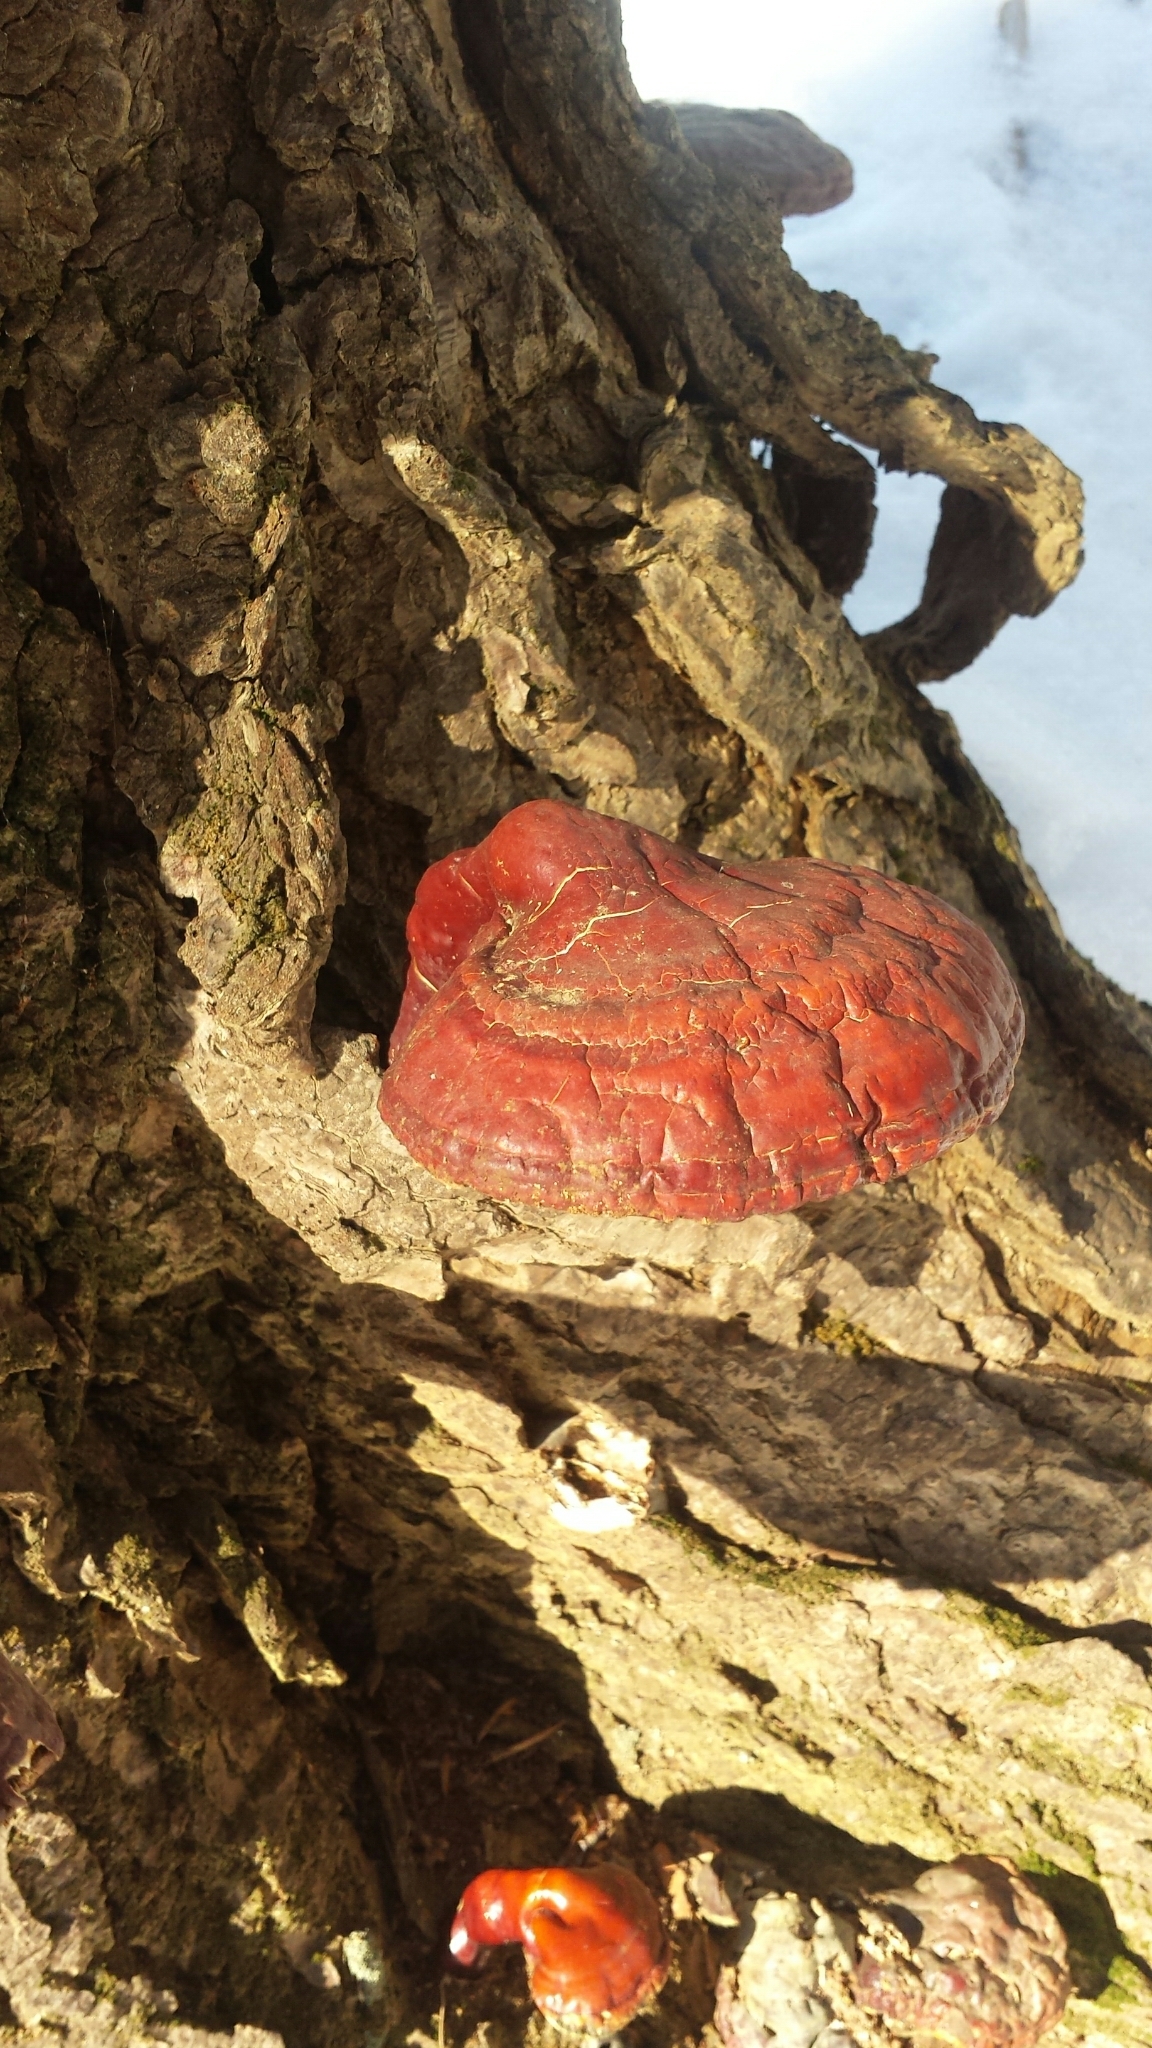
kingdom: Fungi
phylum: Basidiomycota
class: Agaricomycetes
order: Polyporales
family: Polyporaceae
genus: Ganoderma
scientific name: Ganoderma tsugae
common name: Hemlock varnish shelf
